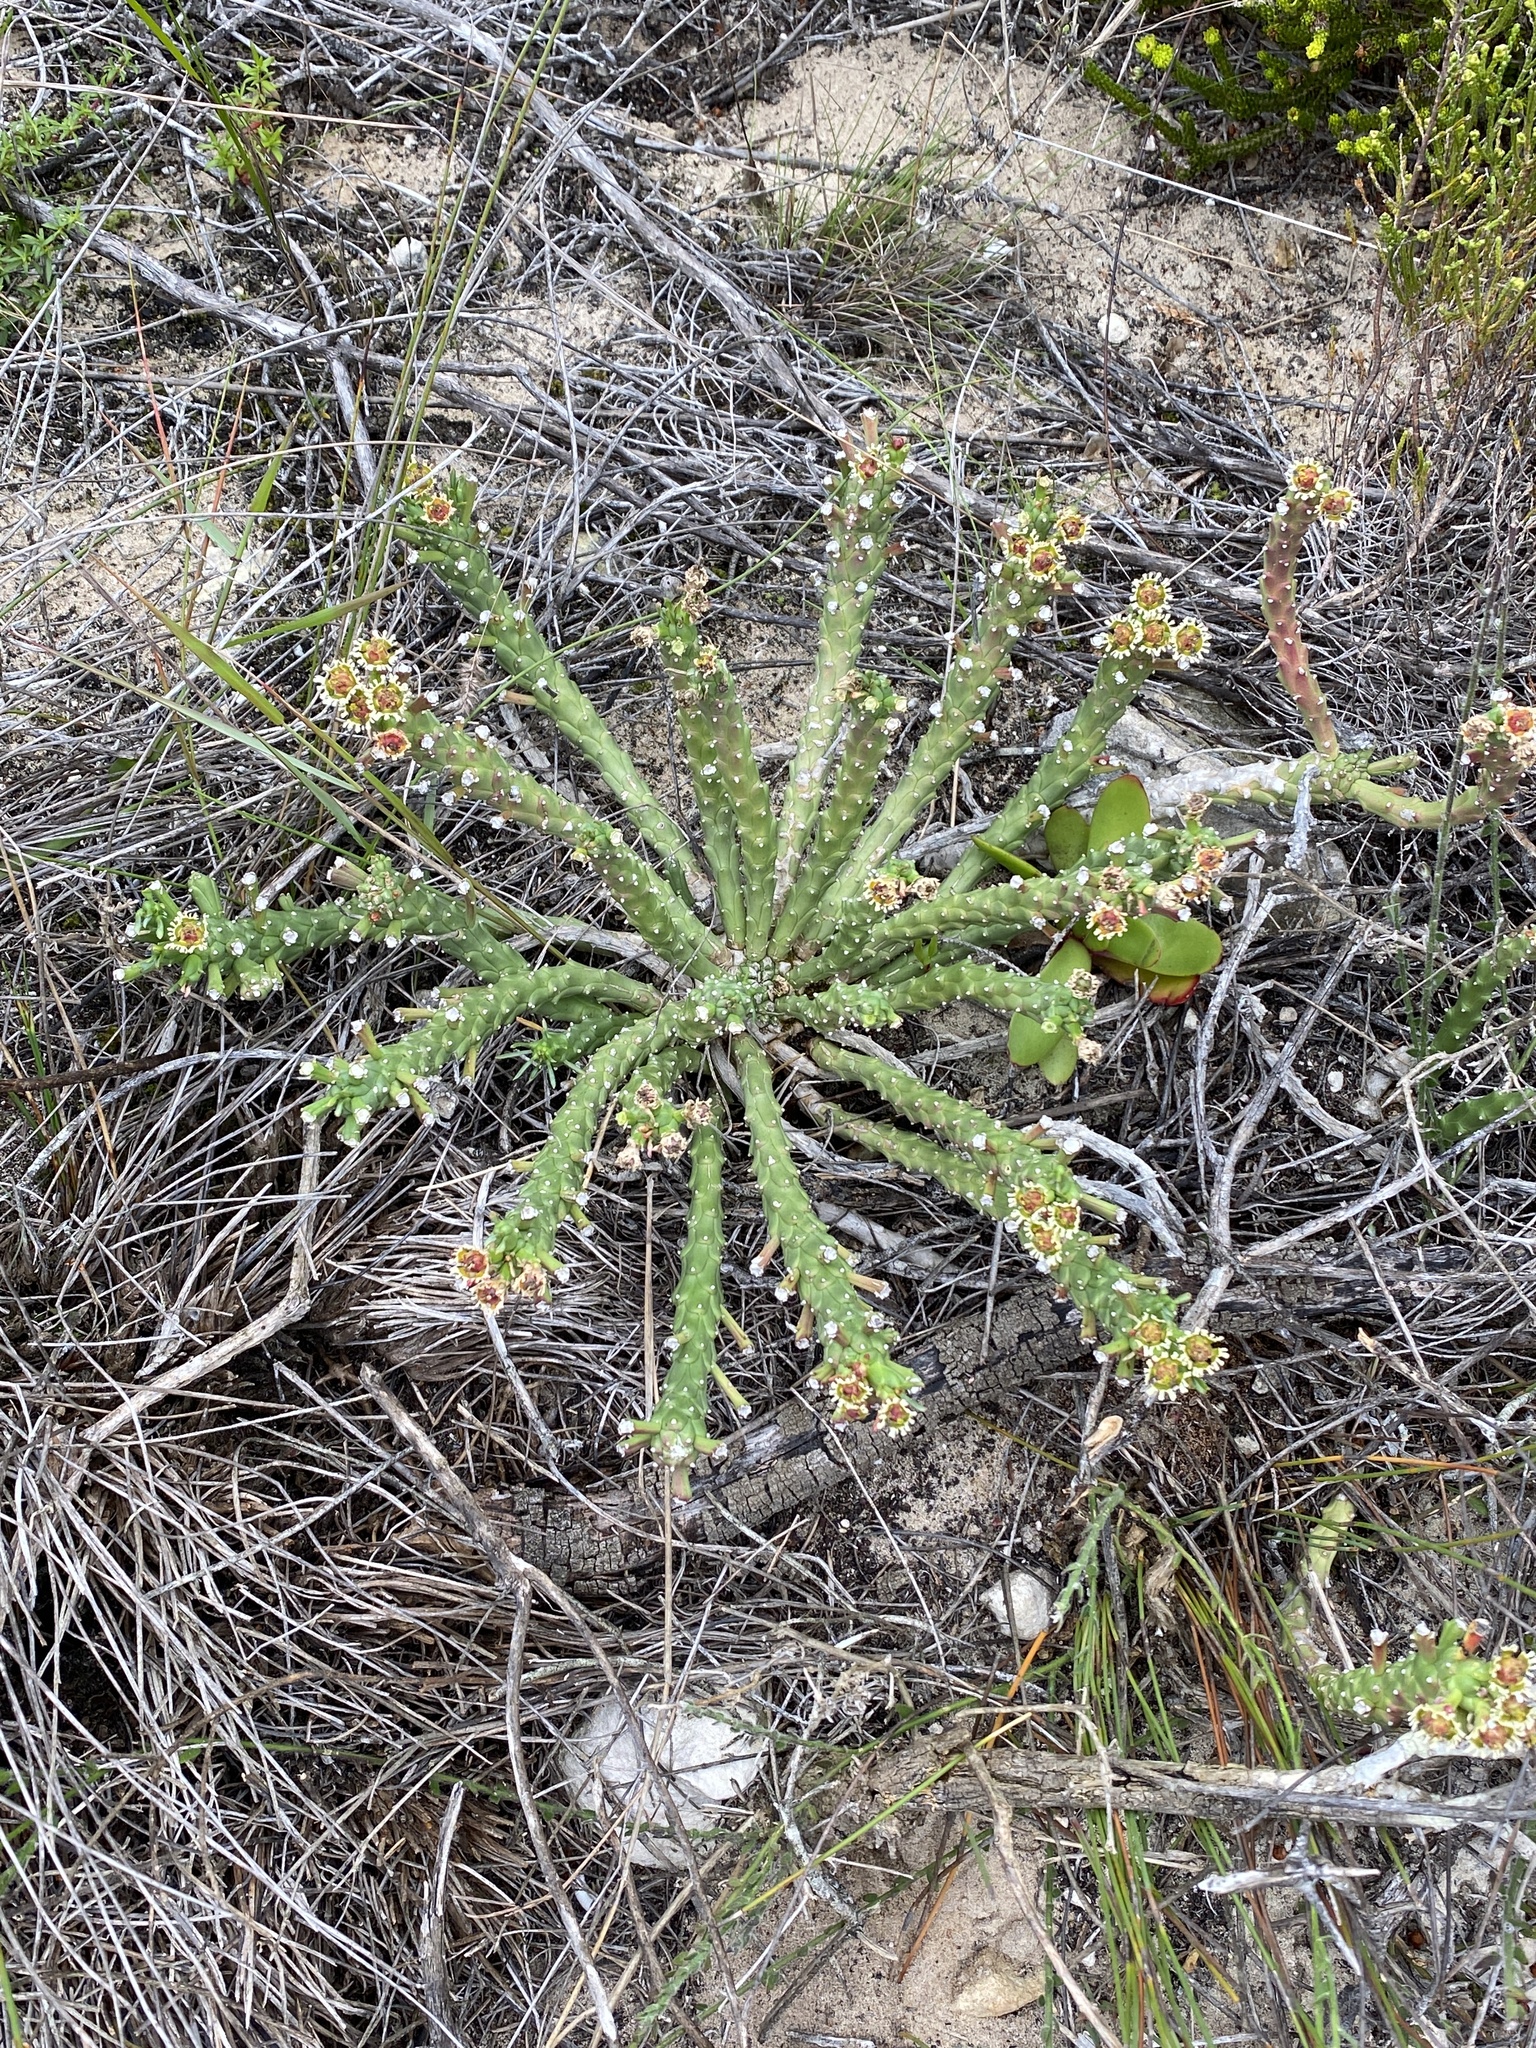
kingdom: Plantae
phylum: Tracheophyta
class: Magnoliopsida
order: Malpighiales
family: Euphorbiaceae
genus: Euphorbia
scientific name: Euphorbia caput-medusae
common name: Medusa's-head
